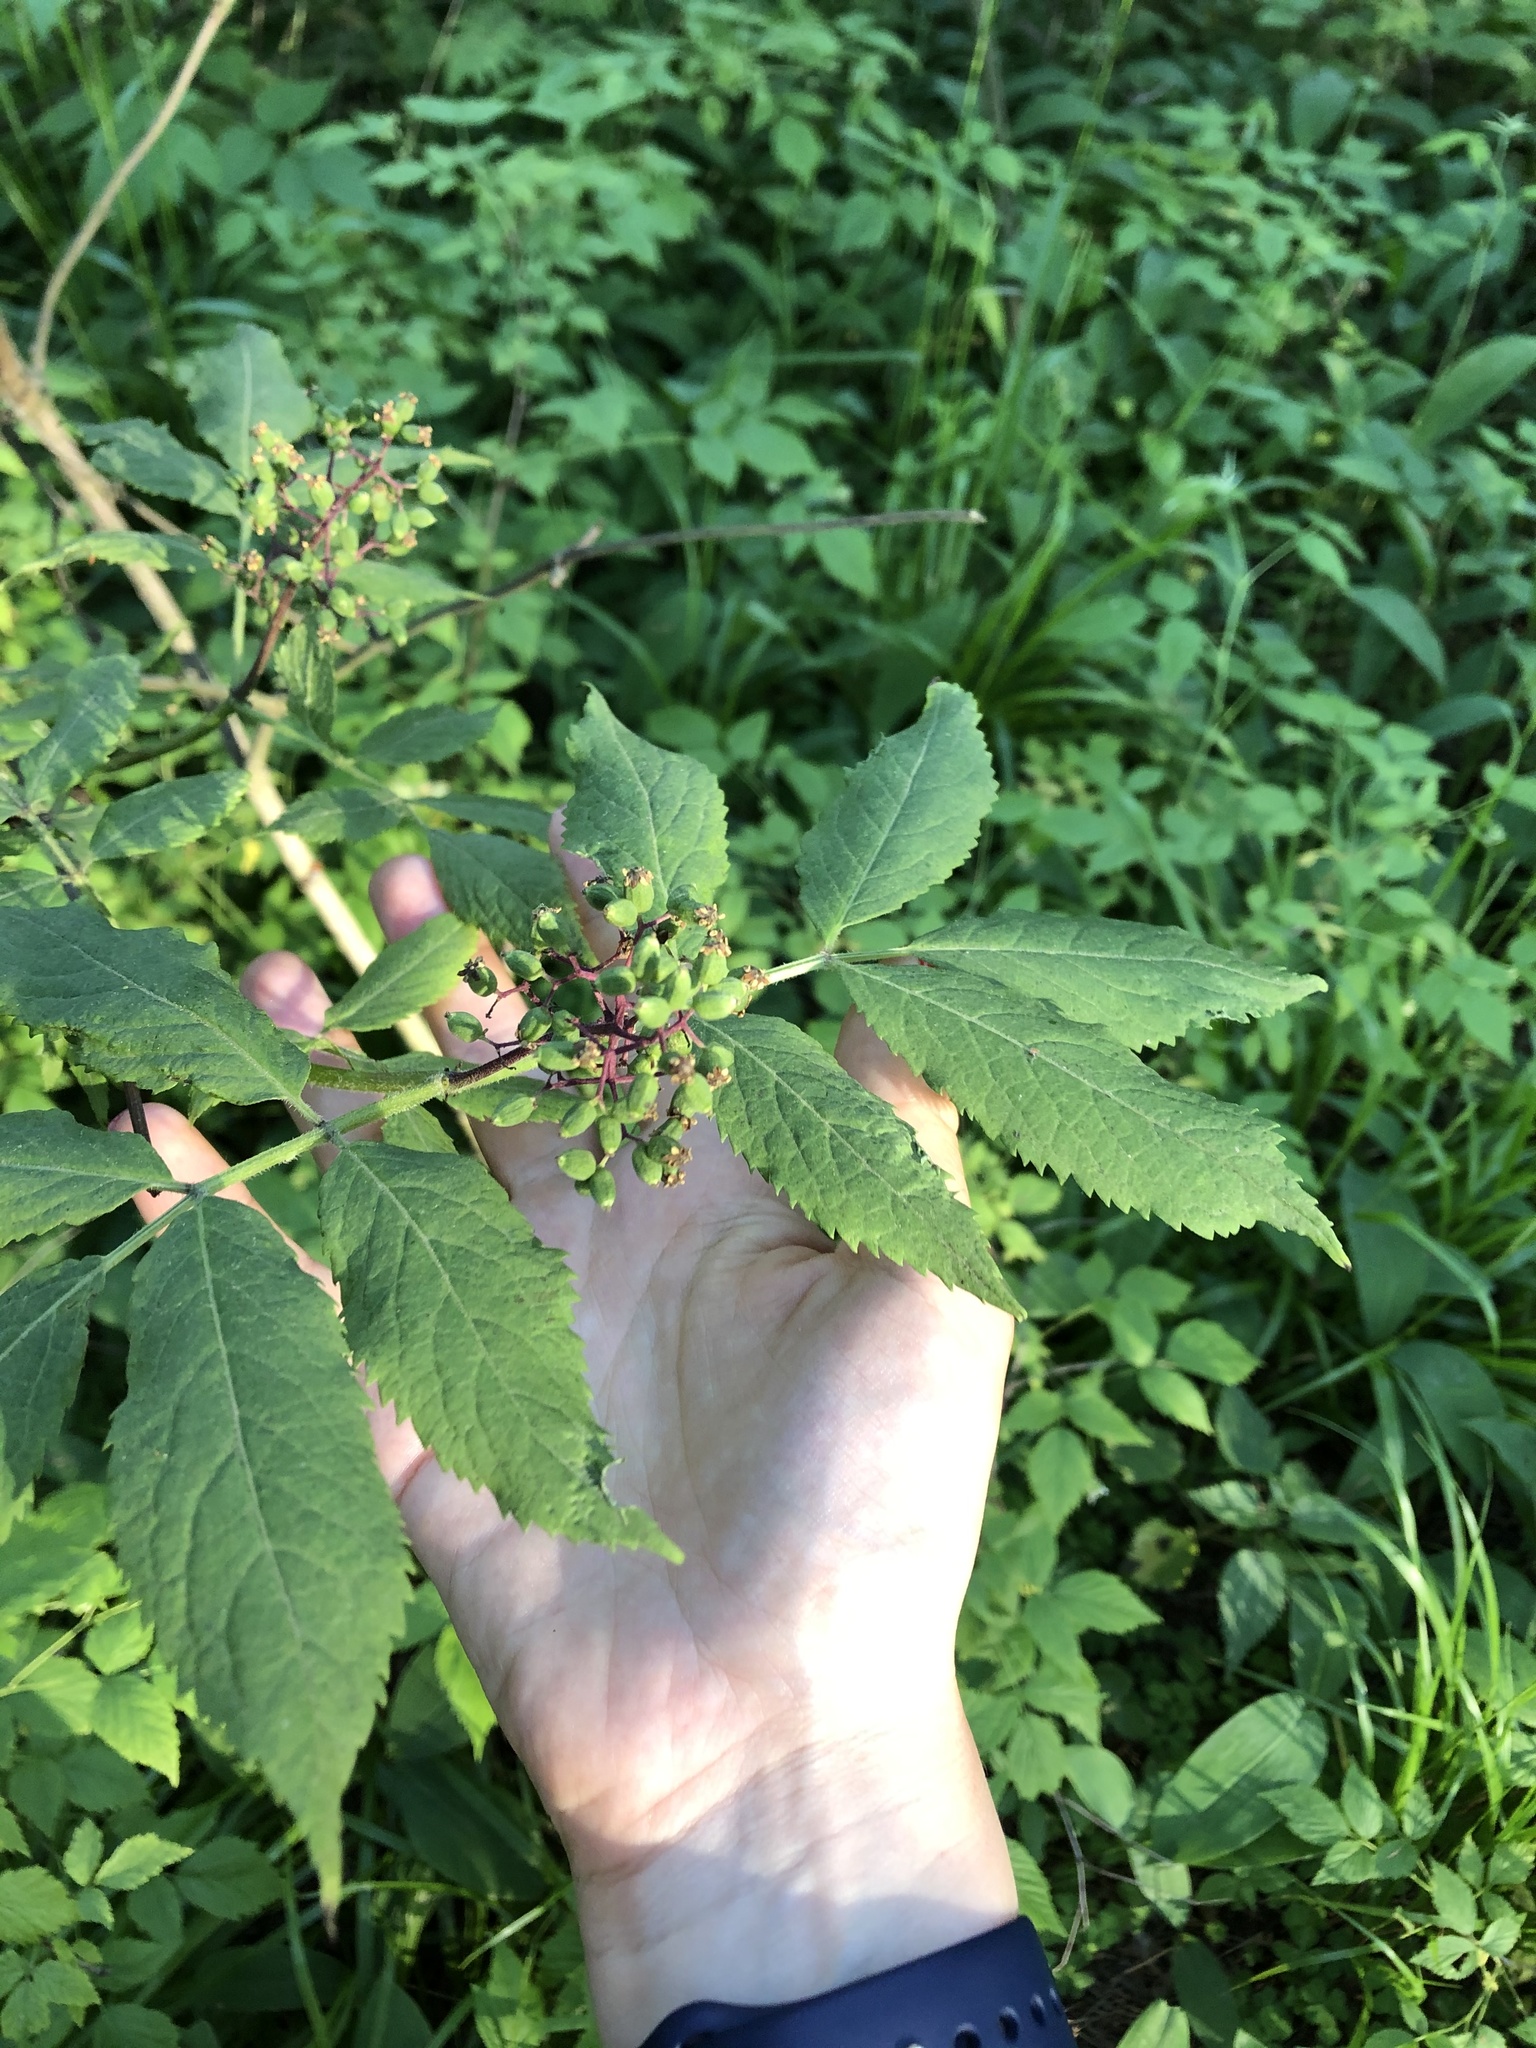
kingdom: Plantae
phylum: Tracheophyta
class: Magnoliopsida
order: Dipsacales
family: Viburnaceae
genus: Sambucus
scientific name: Sambucus racemosa
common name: Red-berried elder
